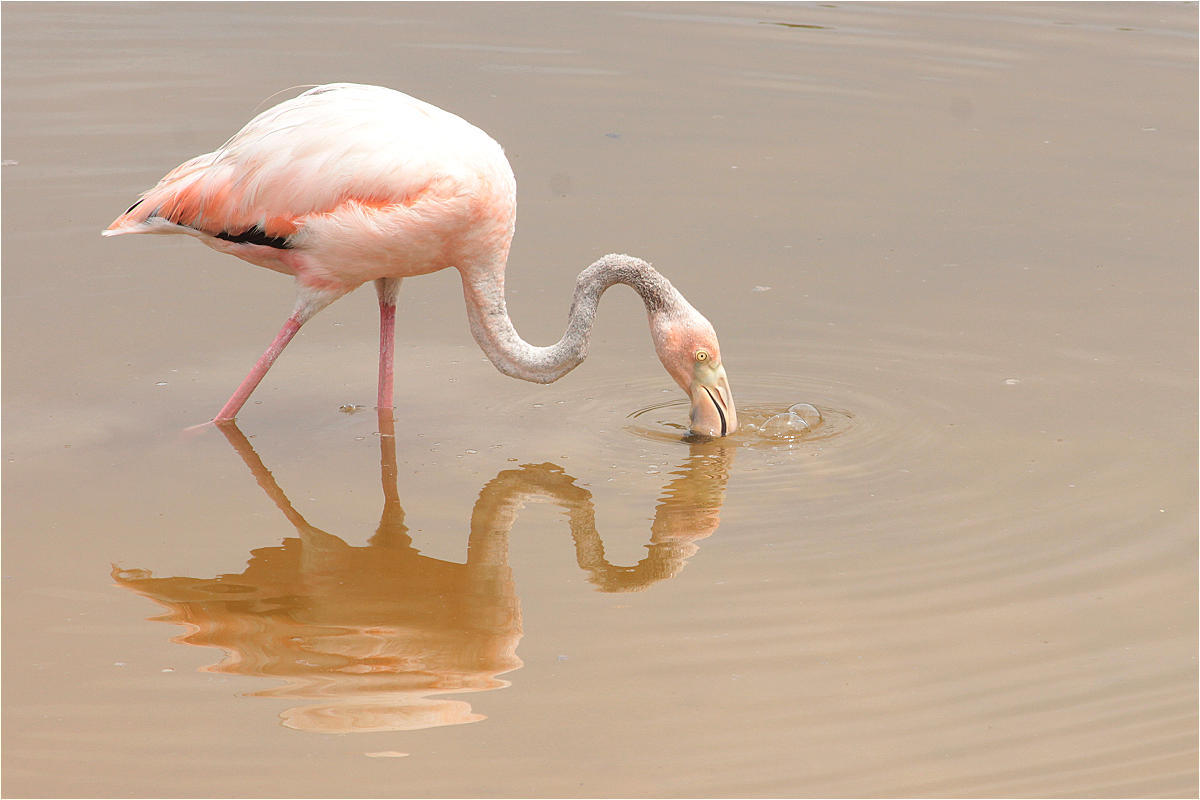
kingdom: Animalia
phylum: Chordata
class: Aves
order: Phoenicopteriformes
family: Phoenicopteridae
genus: Phoenicopterus
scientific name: Phoenicopterus ruber
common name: American flamingo
